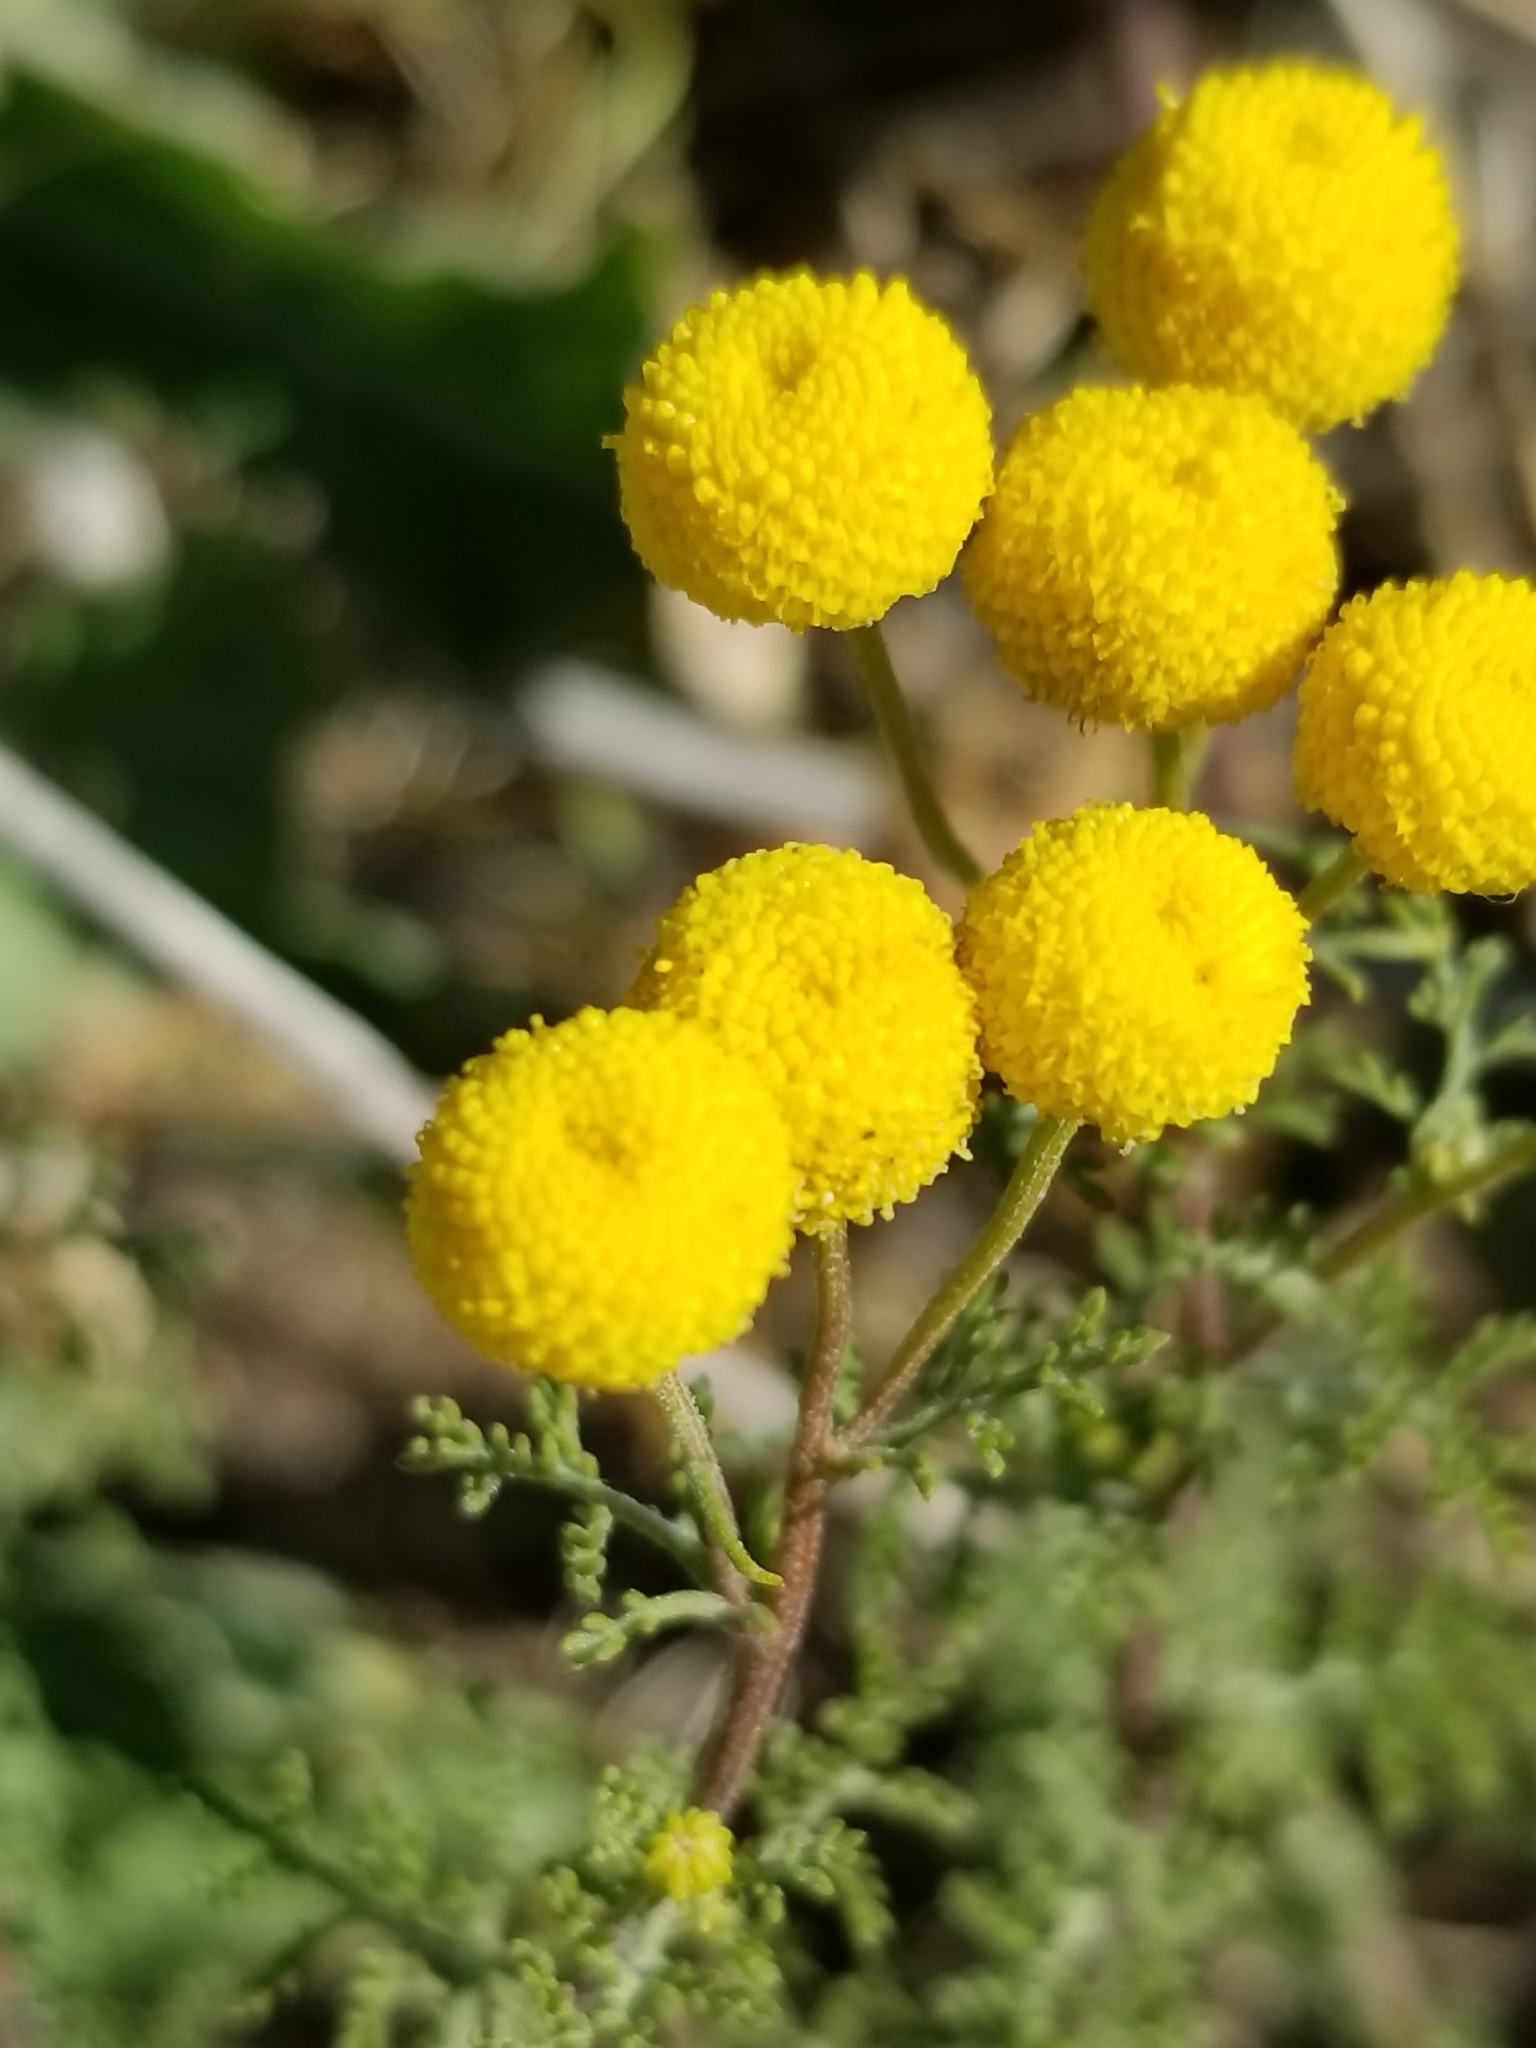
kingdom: Plantae
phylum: Tracheophyta
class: Magnoliopsida
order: Asterales
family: Asteraceae
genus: Oncosiphon
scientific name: Oncosiphon pilulifer
